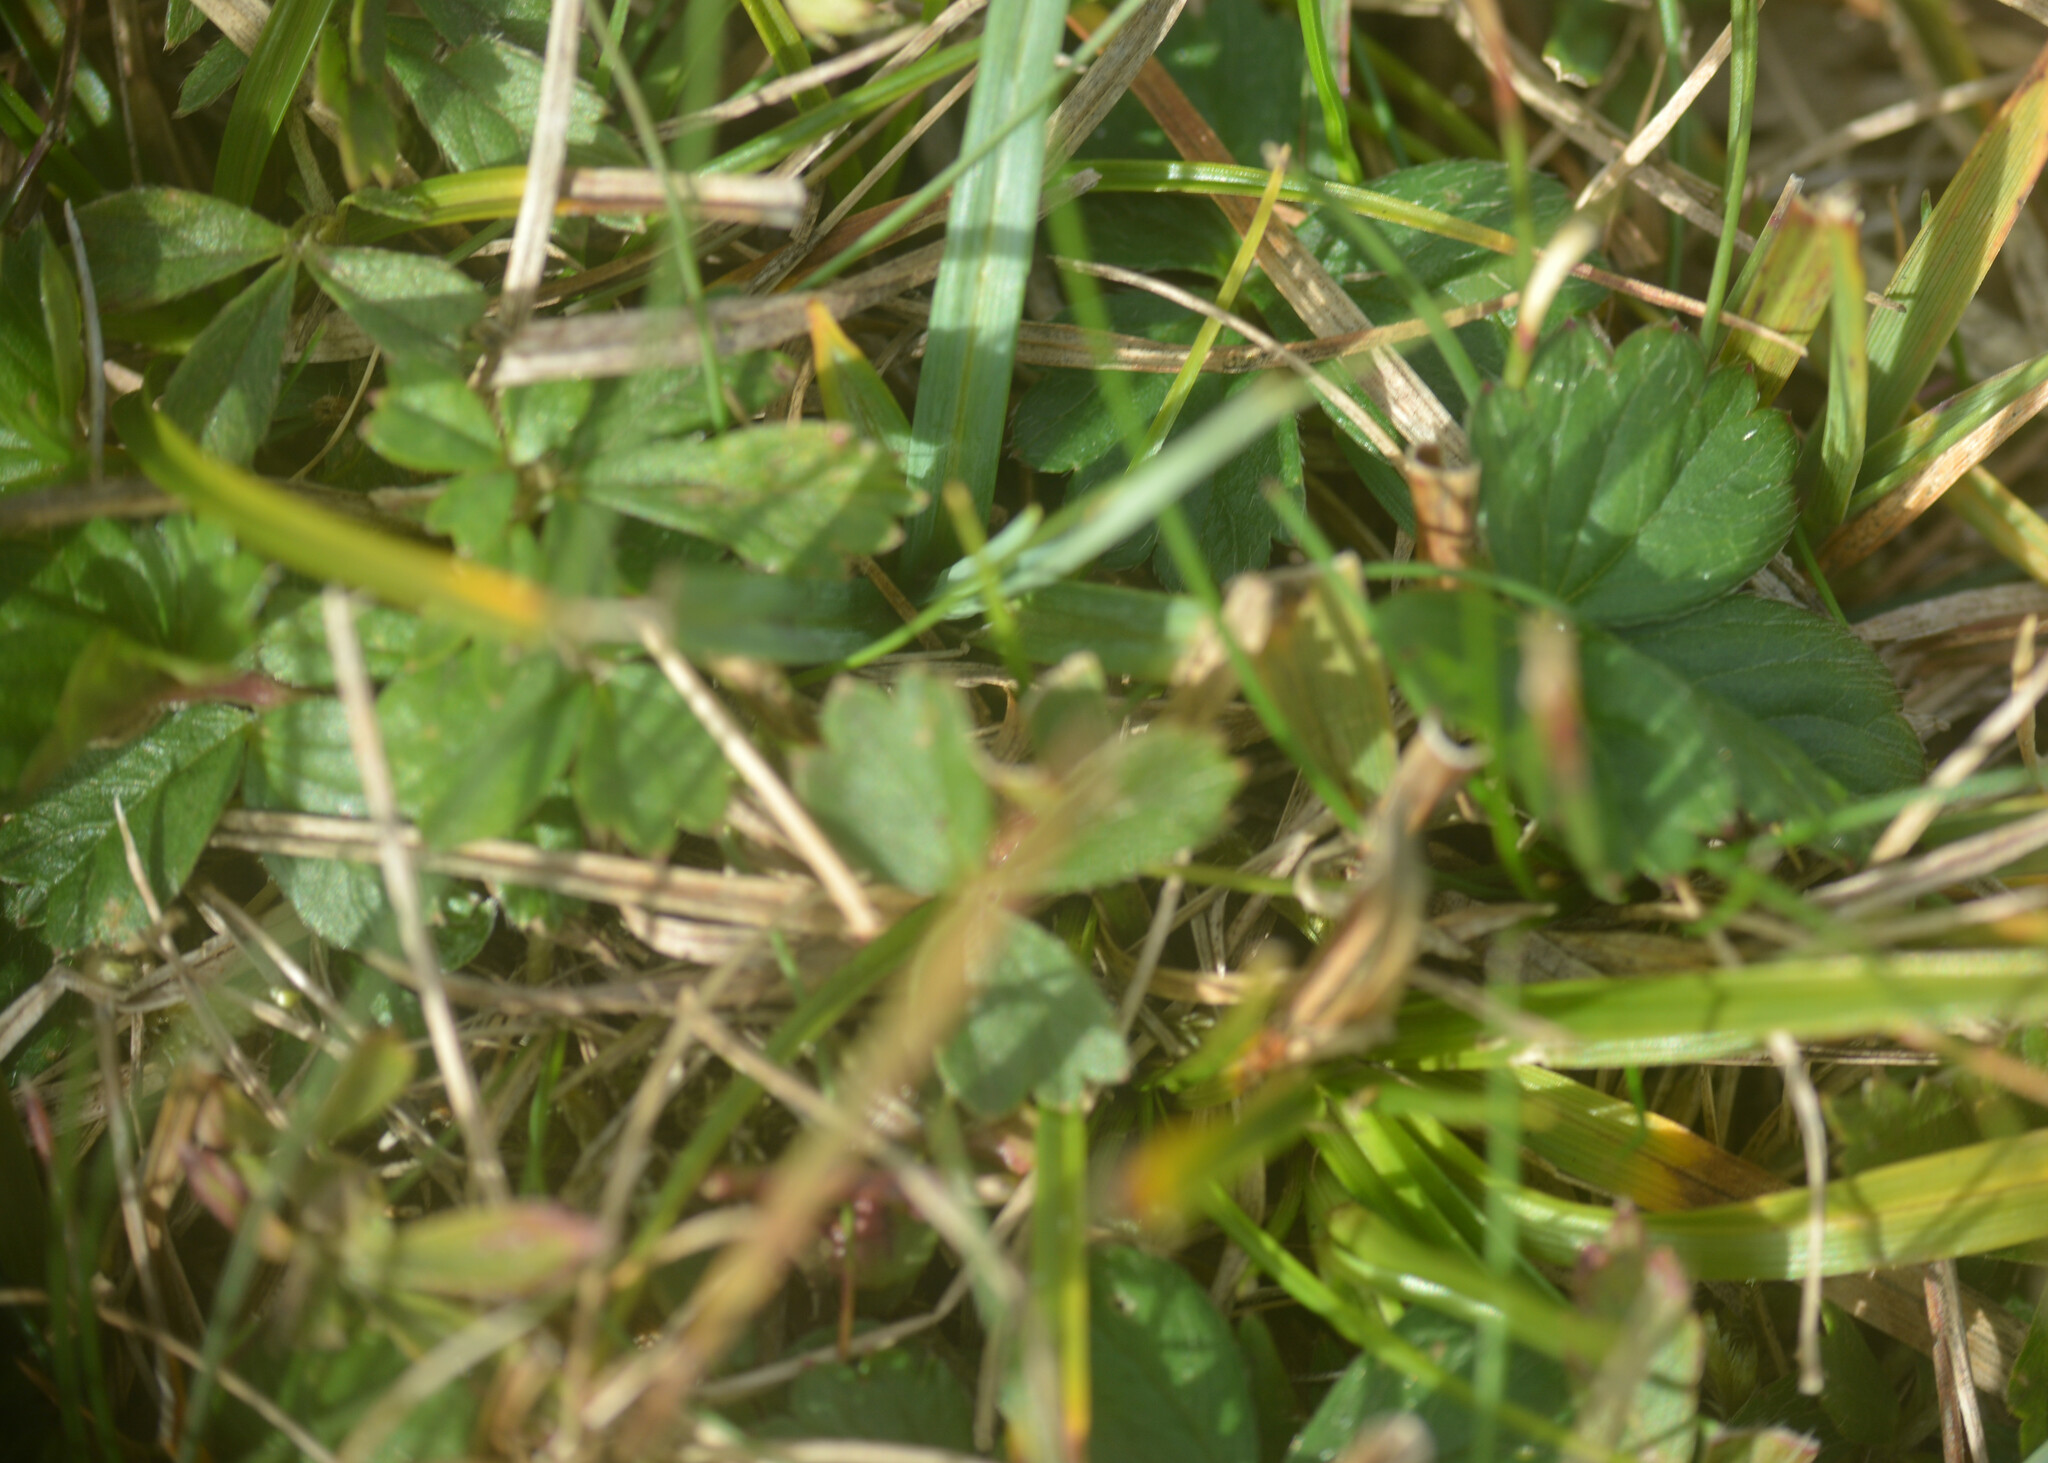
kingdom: Plantae
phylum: Tracheophyta
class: Magnoliopsida
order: Rosales
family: Rosaceae
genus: Potentilla
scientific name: Potentilla erecta
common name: Tormentil
